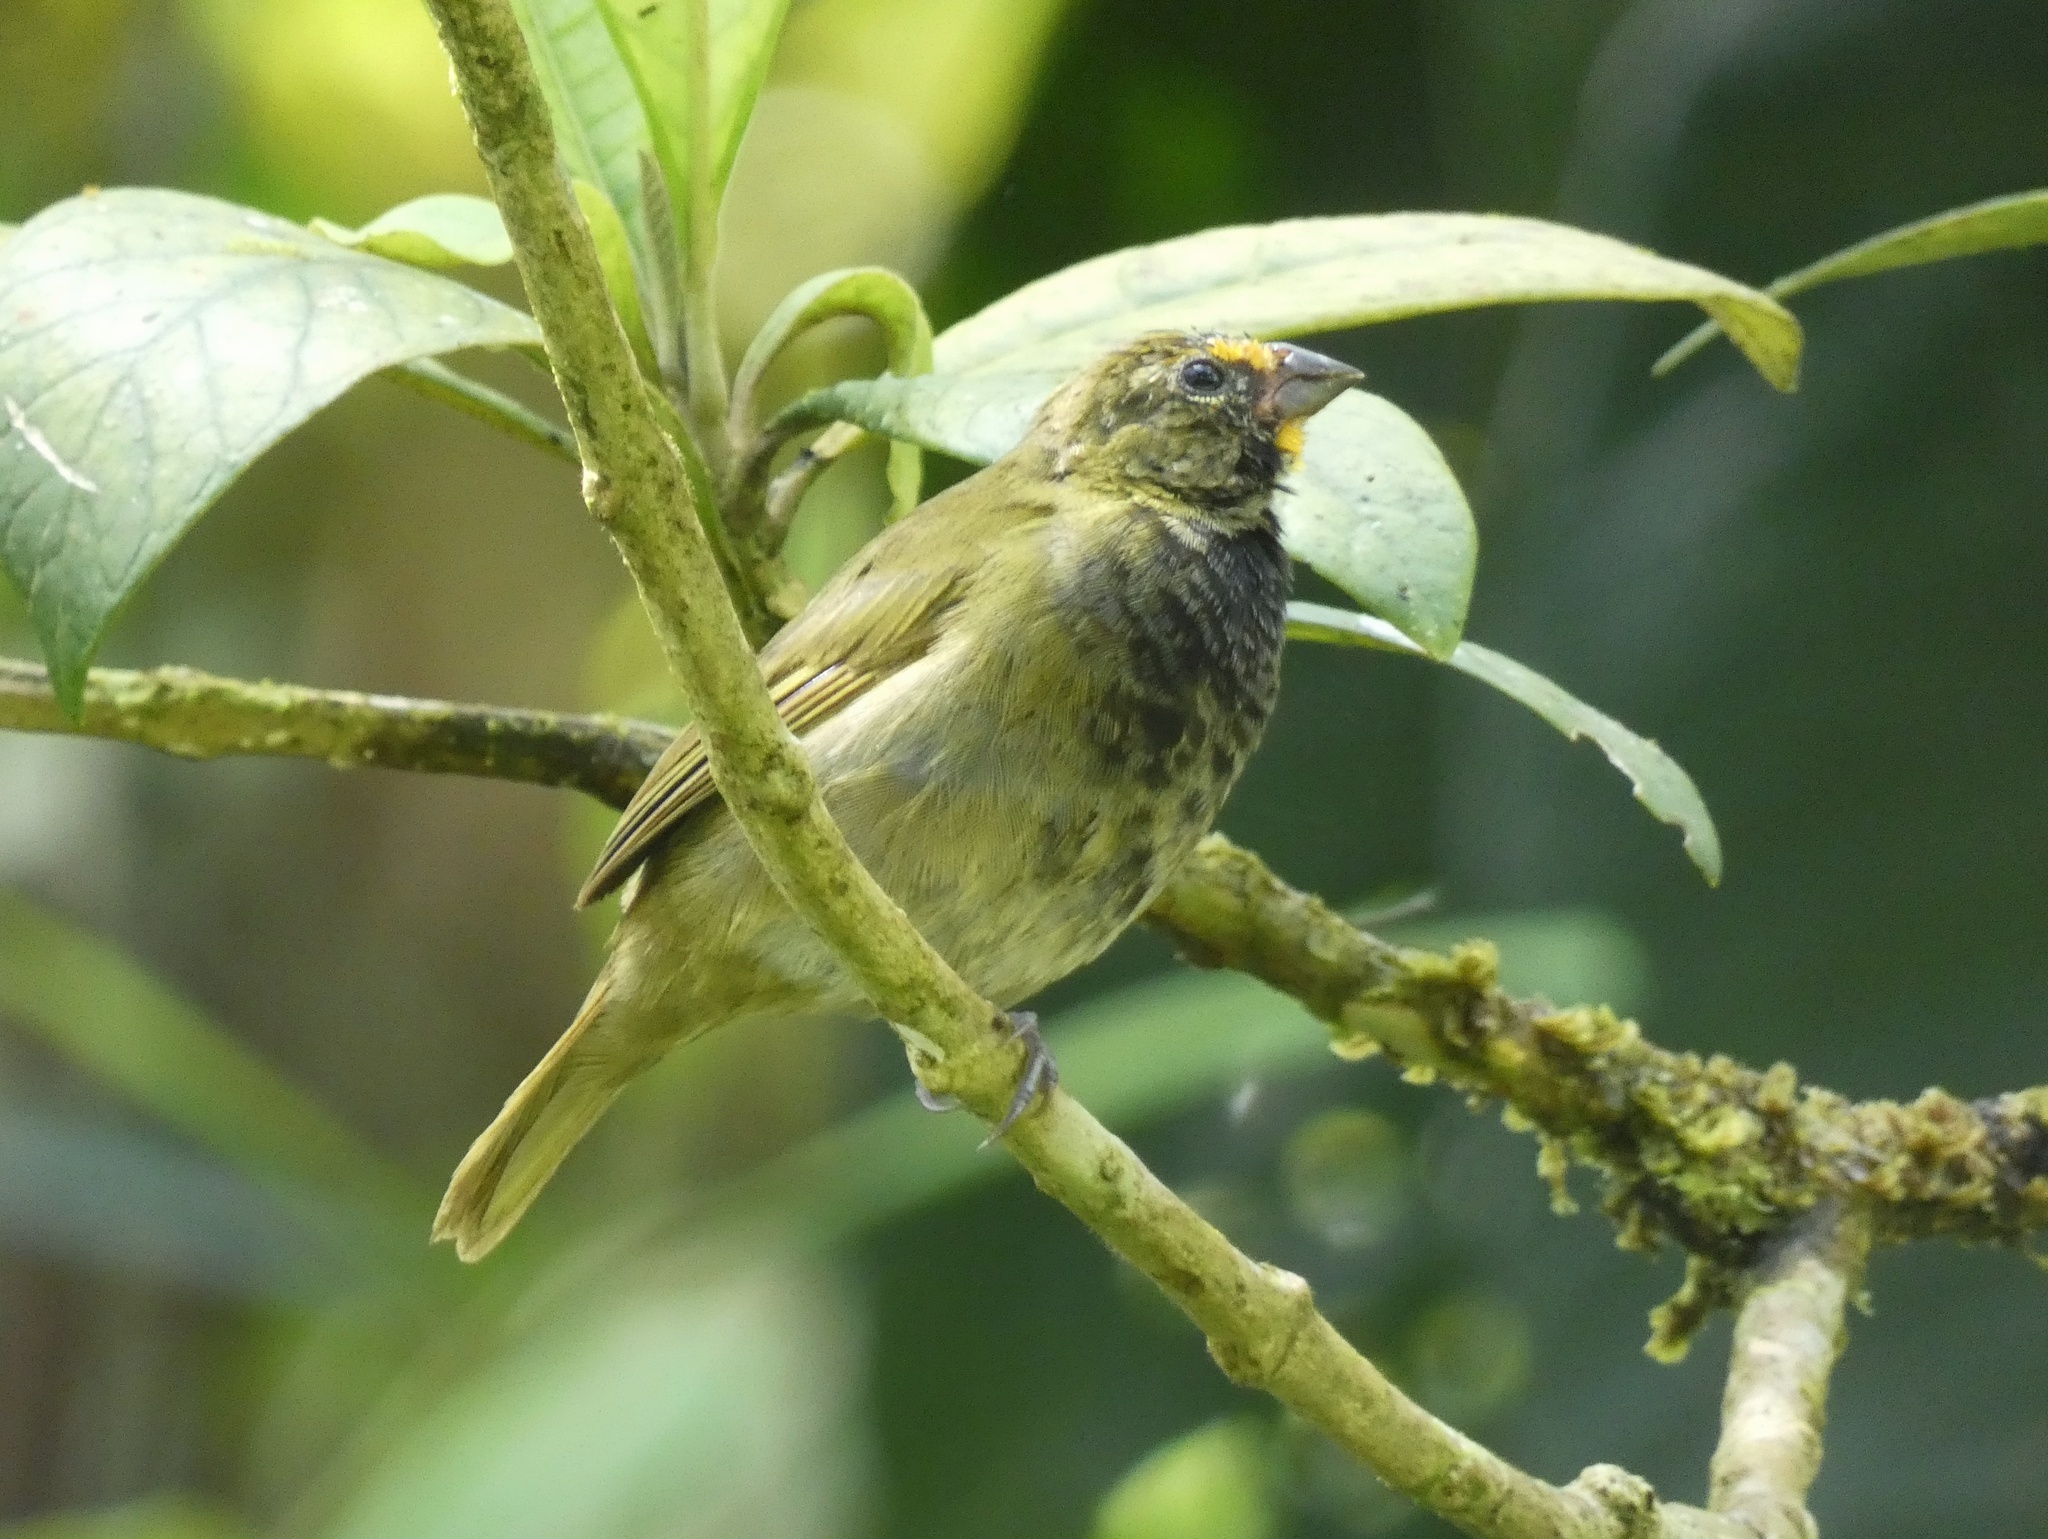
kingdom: Animalia
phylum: Chordata
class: Aves
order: Passeriformes
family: Thraupidae
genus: Tiaris
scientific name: Tiaris olivaceus
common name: Yellow-faced grassquit
